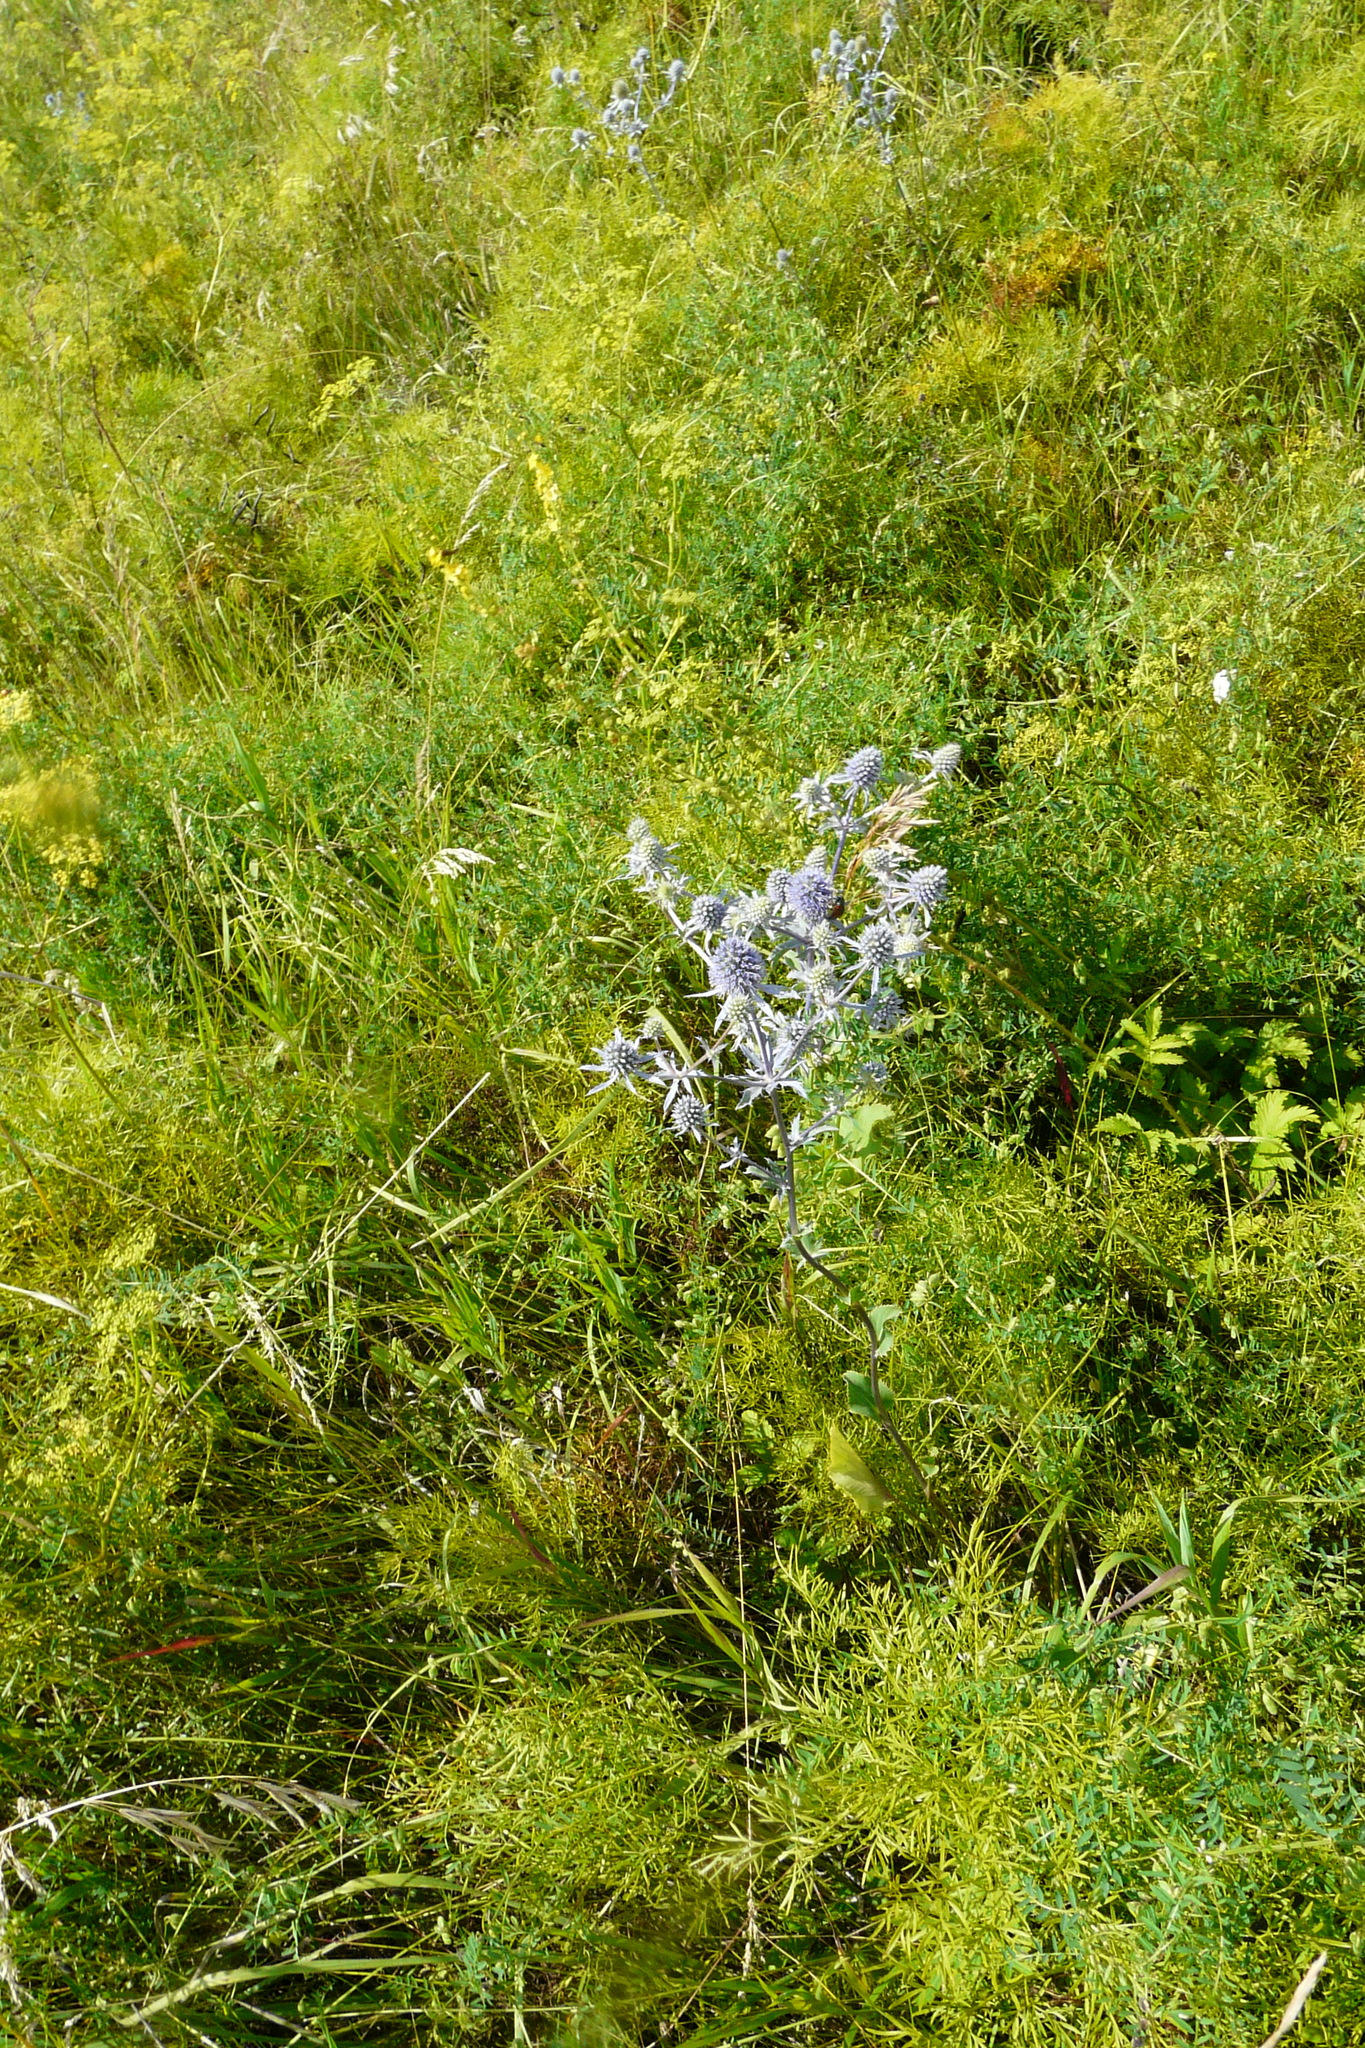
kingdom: Plantae
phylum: Tracheophyta
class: Magnoliopsida
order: Apiales
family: Apiaceae
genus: Eryngium
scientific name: Eryngium planum
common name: Blue eryngo
